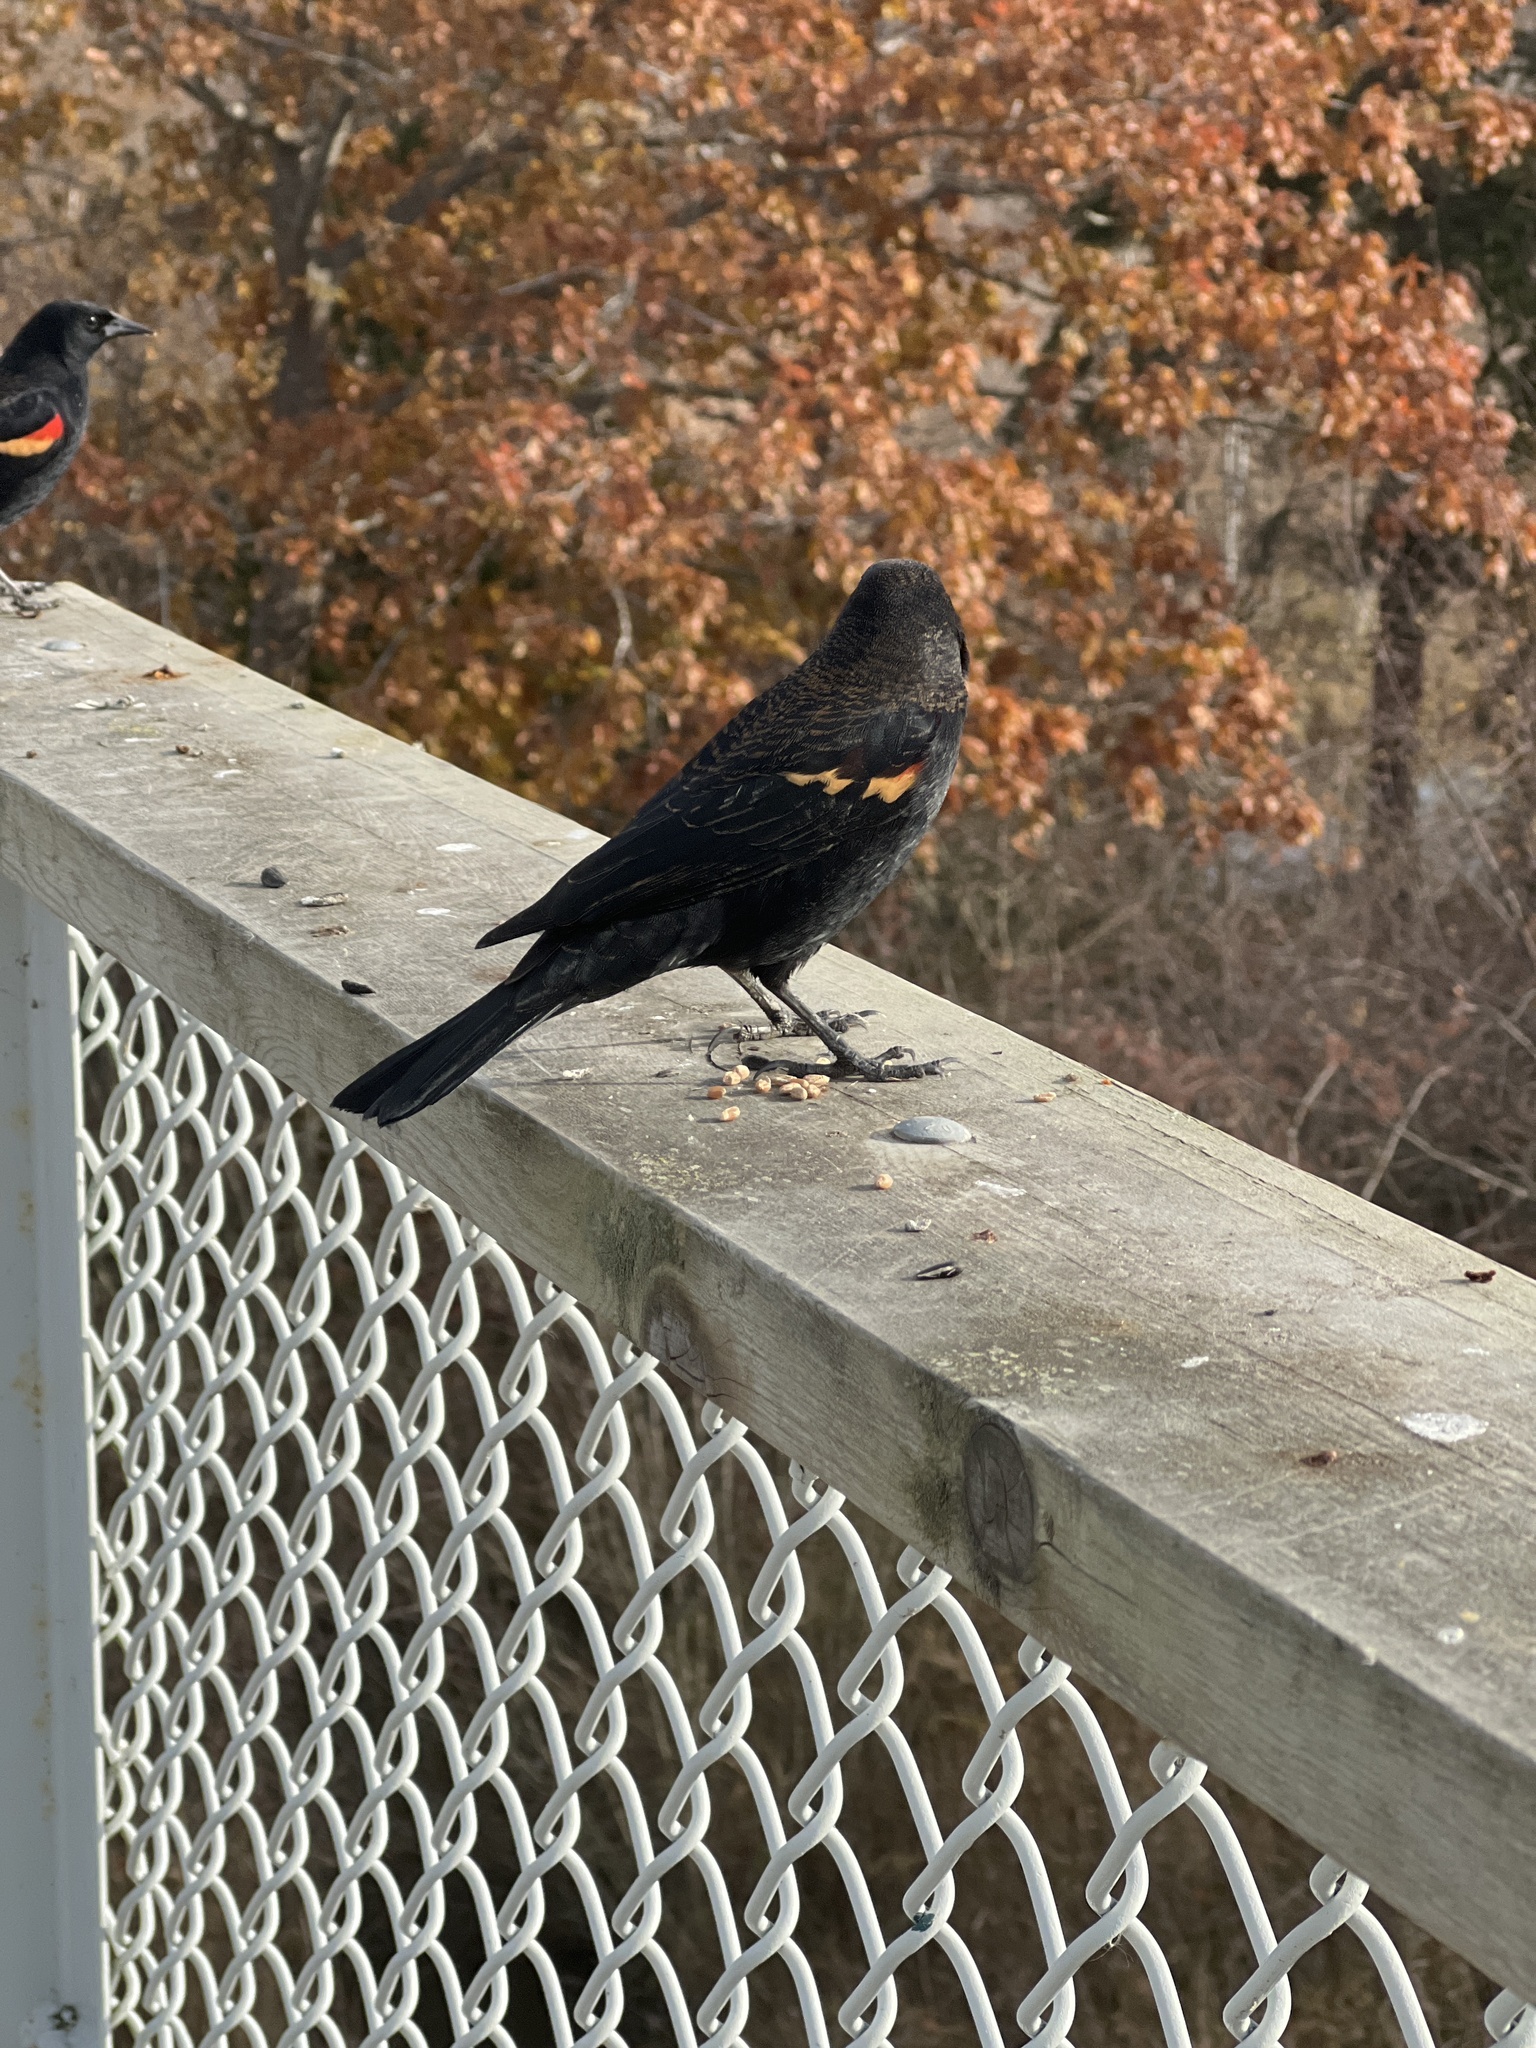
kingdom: Animalia
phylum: Chordata
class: Aves
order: Passeriformes
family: Icteridae
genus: Agelaius
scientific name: Agelaius phoeniceus
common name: Red-winged blackbird
